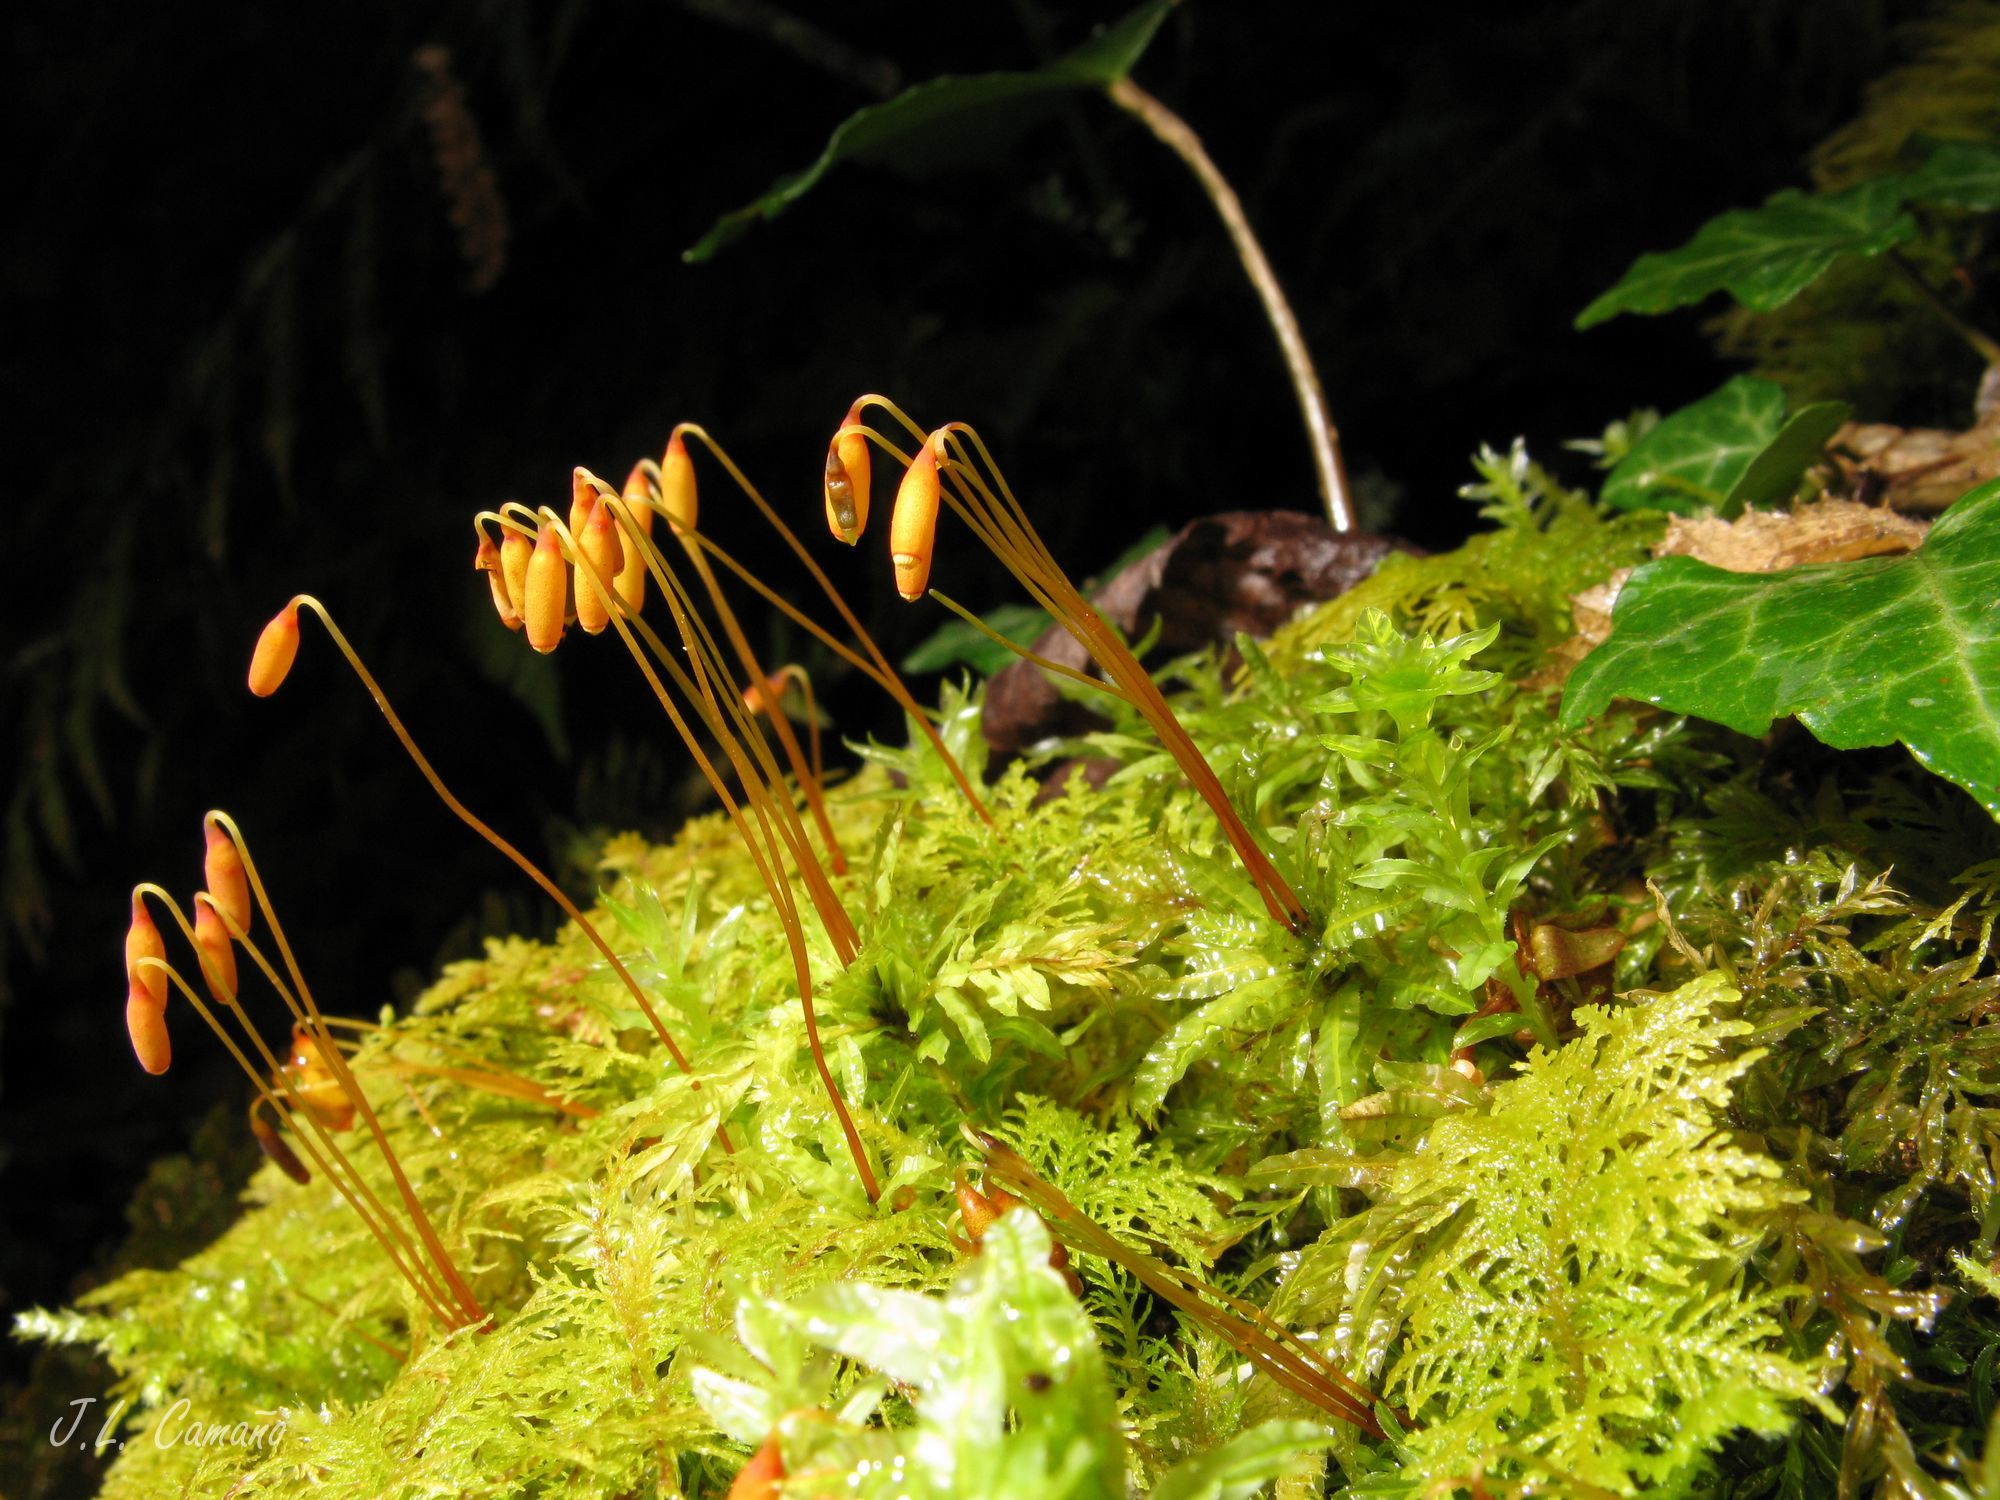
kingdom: Plantae
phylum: Bryophyta
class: Bryopsida
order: Bryales
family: Mniaceae
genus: Plagiomnium
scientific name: Plagiomnium undulatum
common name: Hart's-tongue thyme-moss
